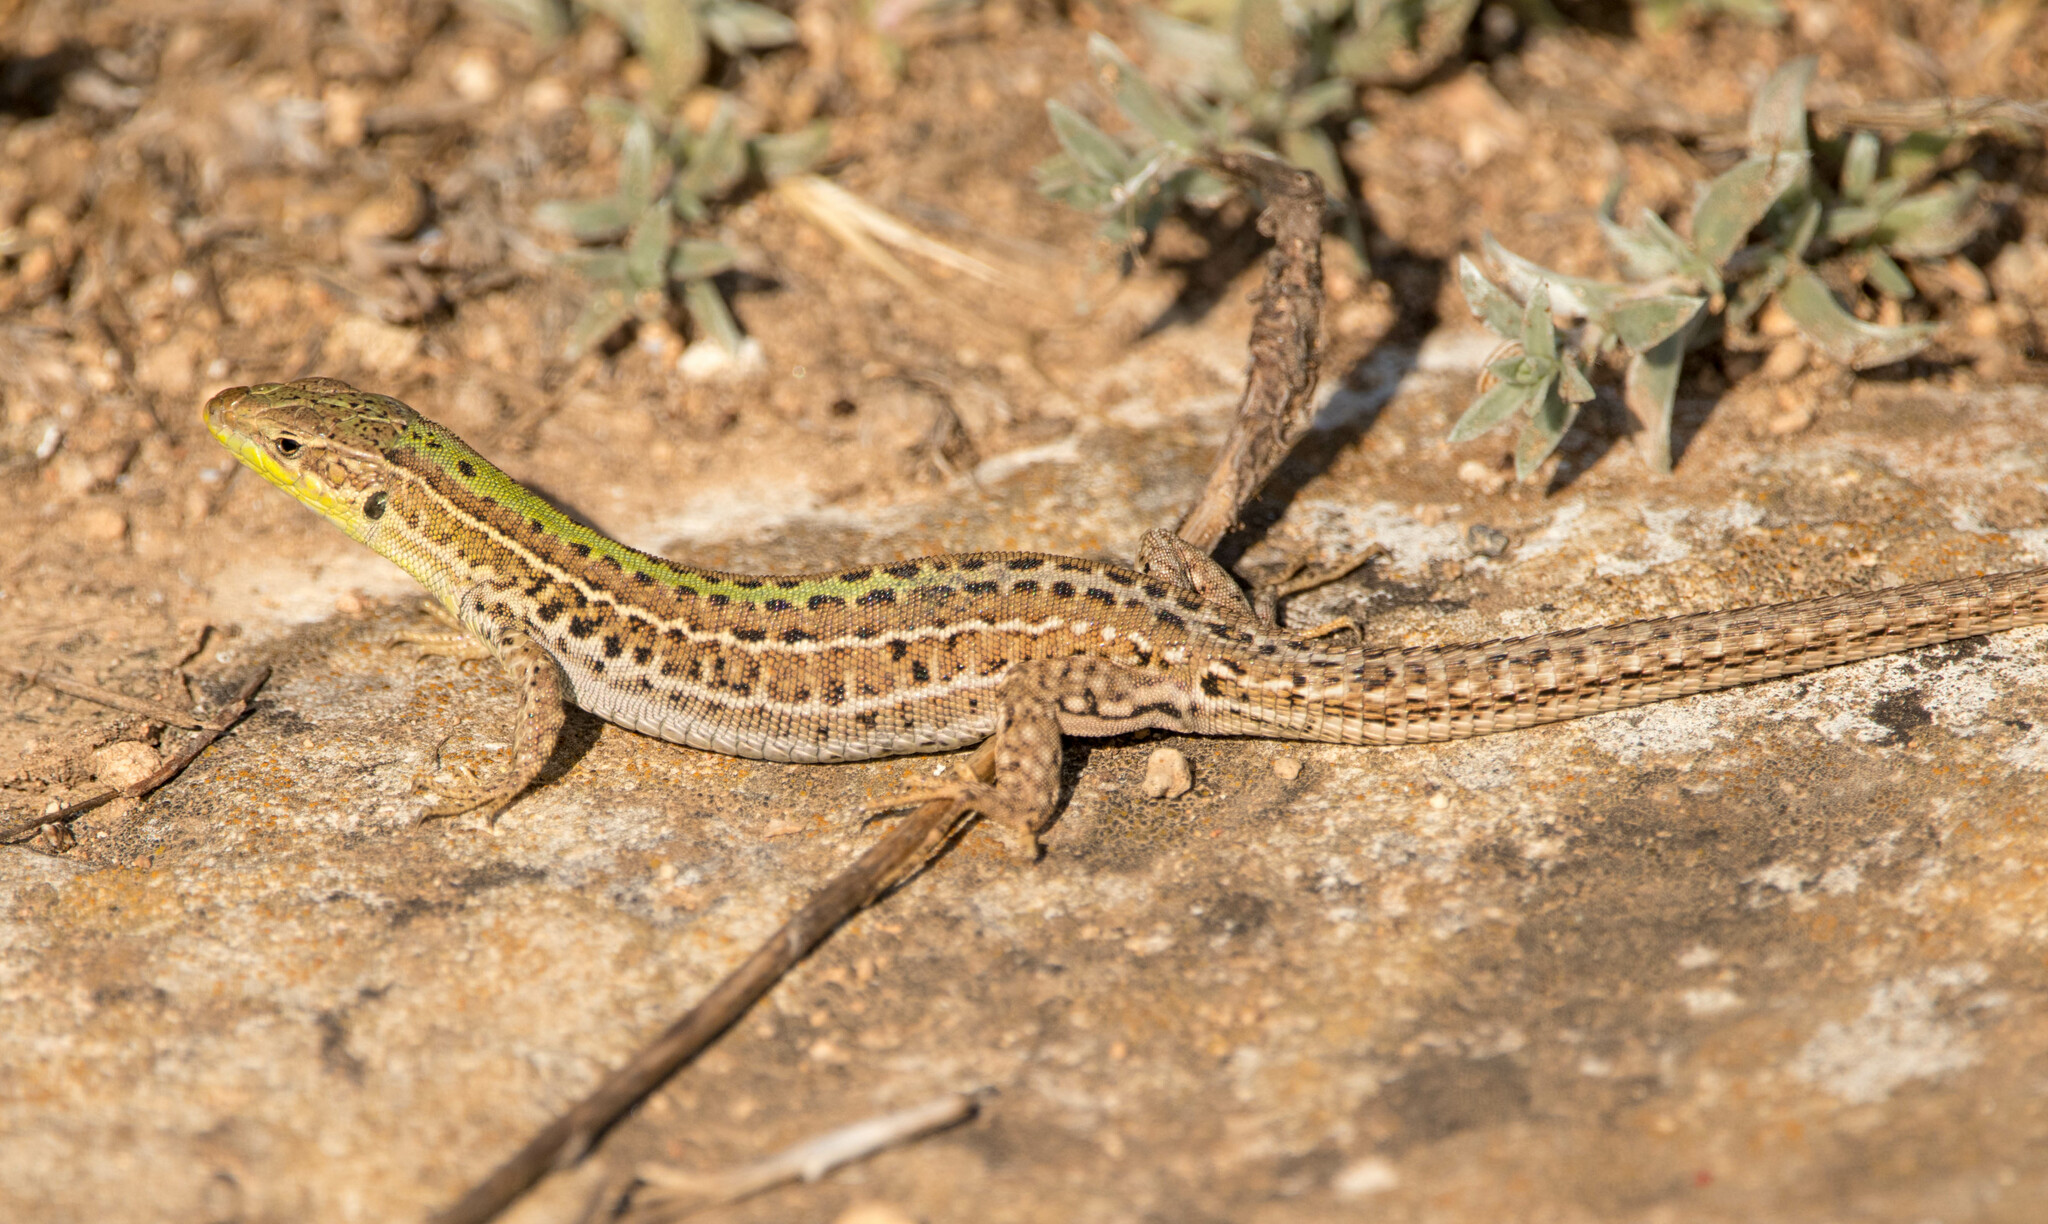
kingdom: Animalia
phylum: Chordata
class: Squamata
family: Lacertidae
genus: Podarcis
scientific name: Podarcis tauricus
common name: Balkan wall lizard
